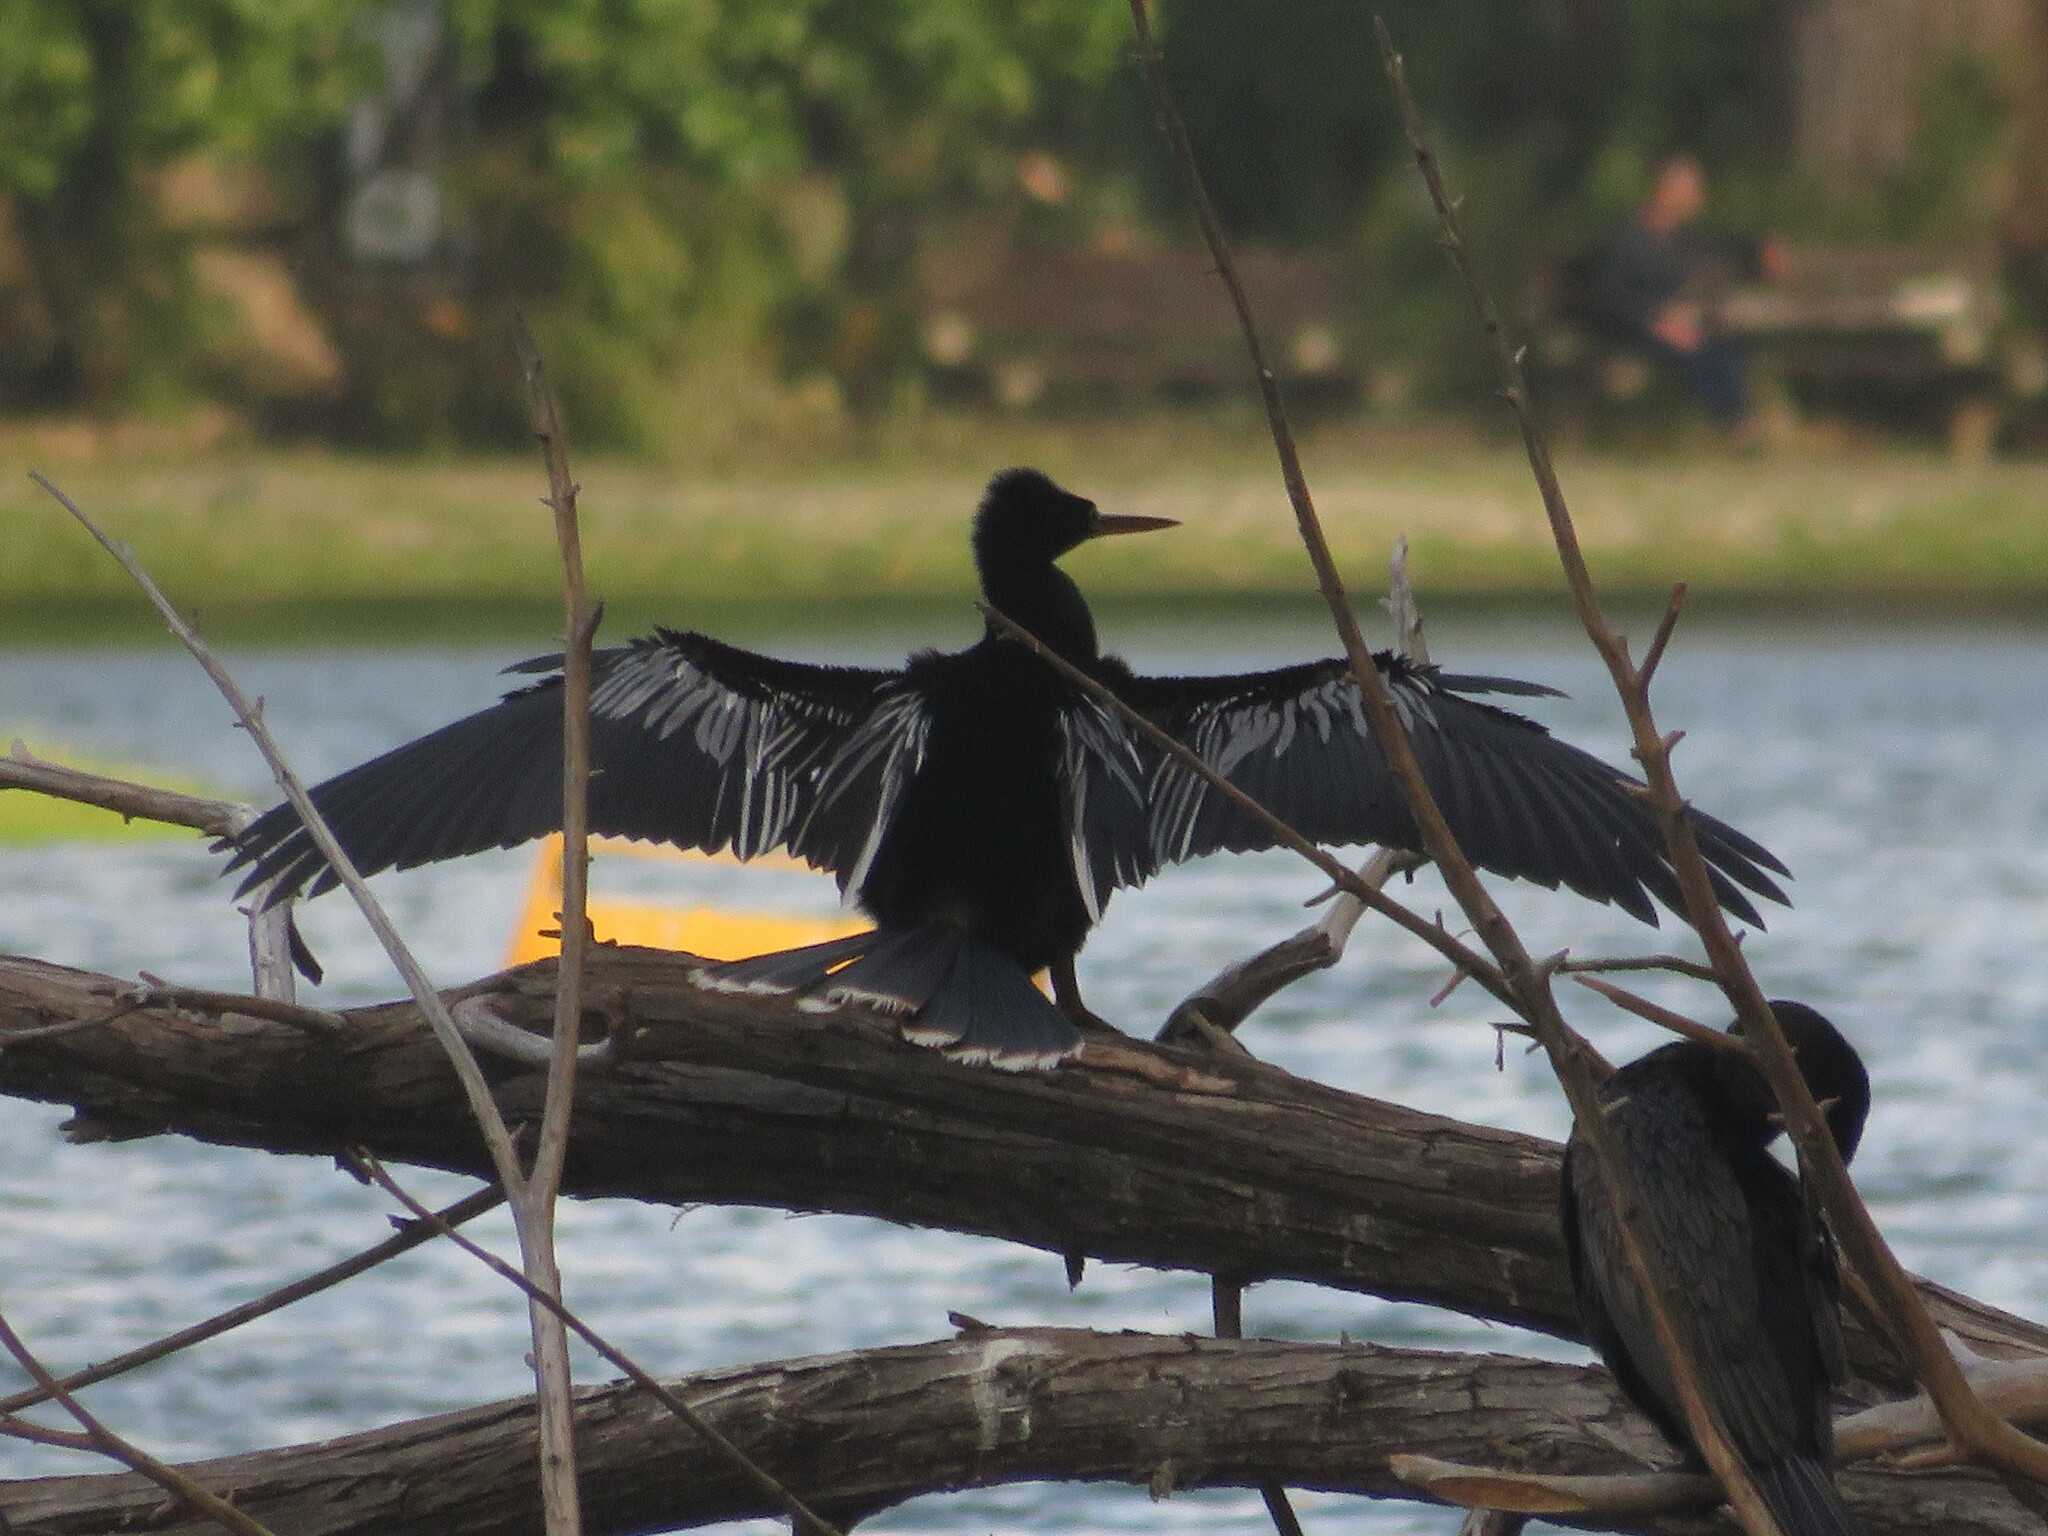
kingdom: Animalia
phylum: Chordata
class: Aves
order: Suliformes
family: Anhingidae
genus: Anhinga
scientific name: Anhinga anhinga
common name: Anhinga
